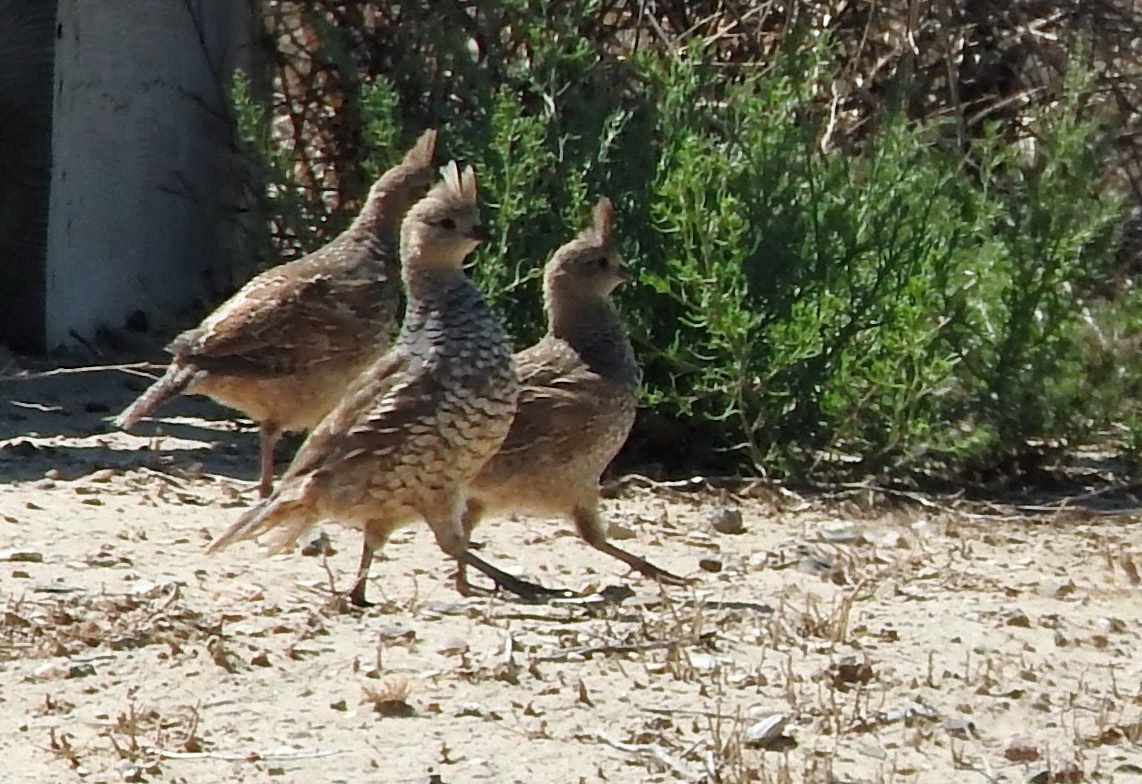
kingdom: Animalia
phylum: Chordata
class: Aves
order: Galliformes
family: Odontophoridae
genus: Callipepla
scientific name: Callipepla squamata
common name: Scaled quail
